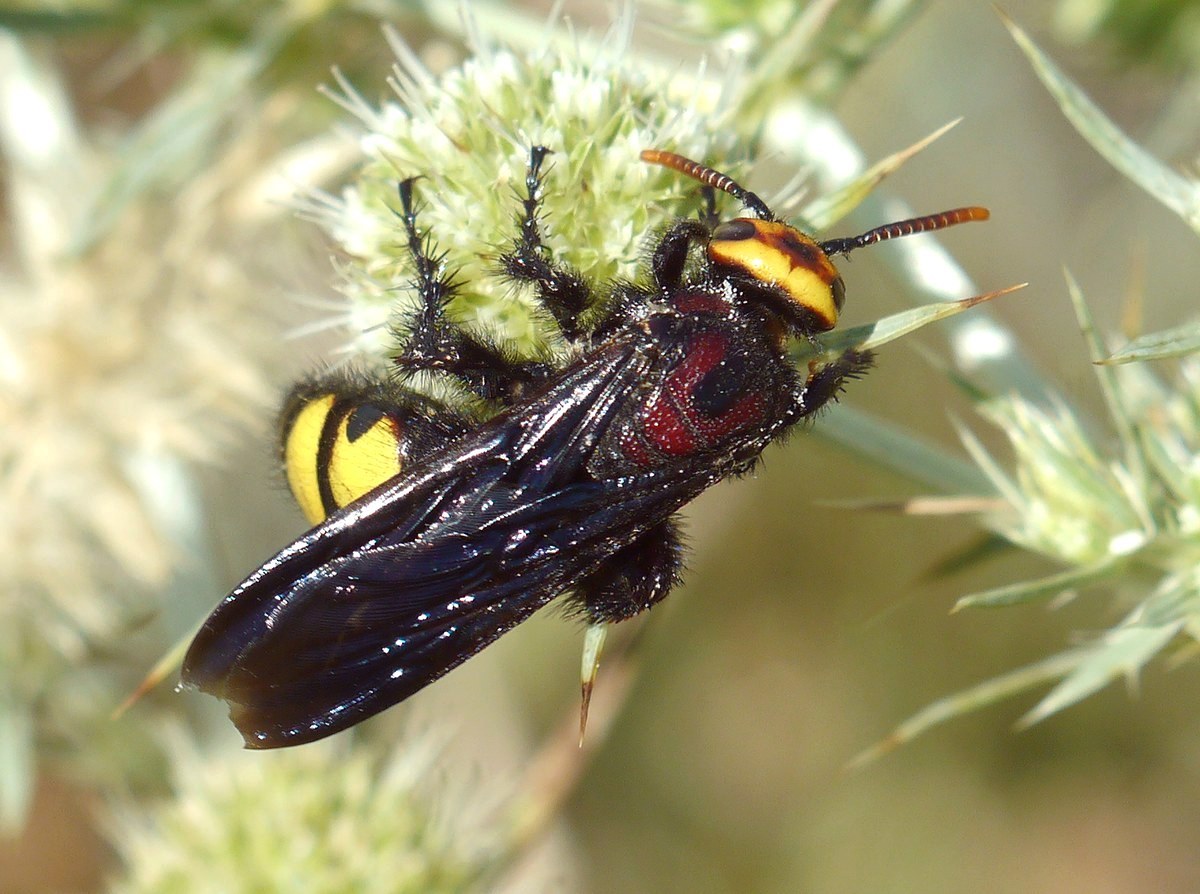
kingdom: Animalia
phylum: Arthropoda
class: Insecta
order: Hymenoptera
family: Vespidae
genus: Vespa
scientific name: Vespa galbula
